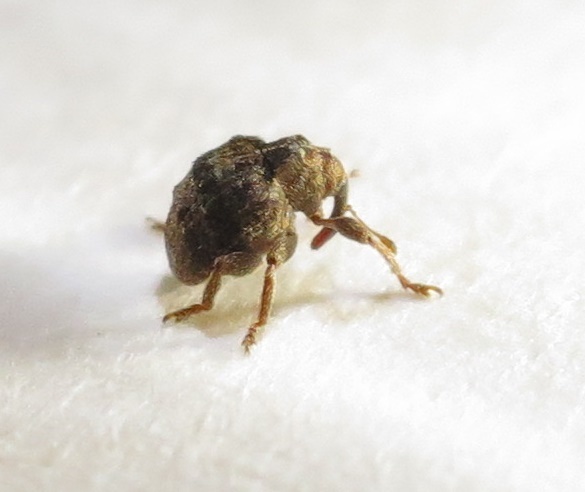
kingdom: Animalia
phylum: Arthropoda
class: Insecta
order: Coleoptera
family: Curculionidae
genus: Phaeopholus
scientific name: Phaeopholus
